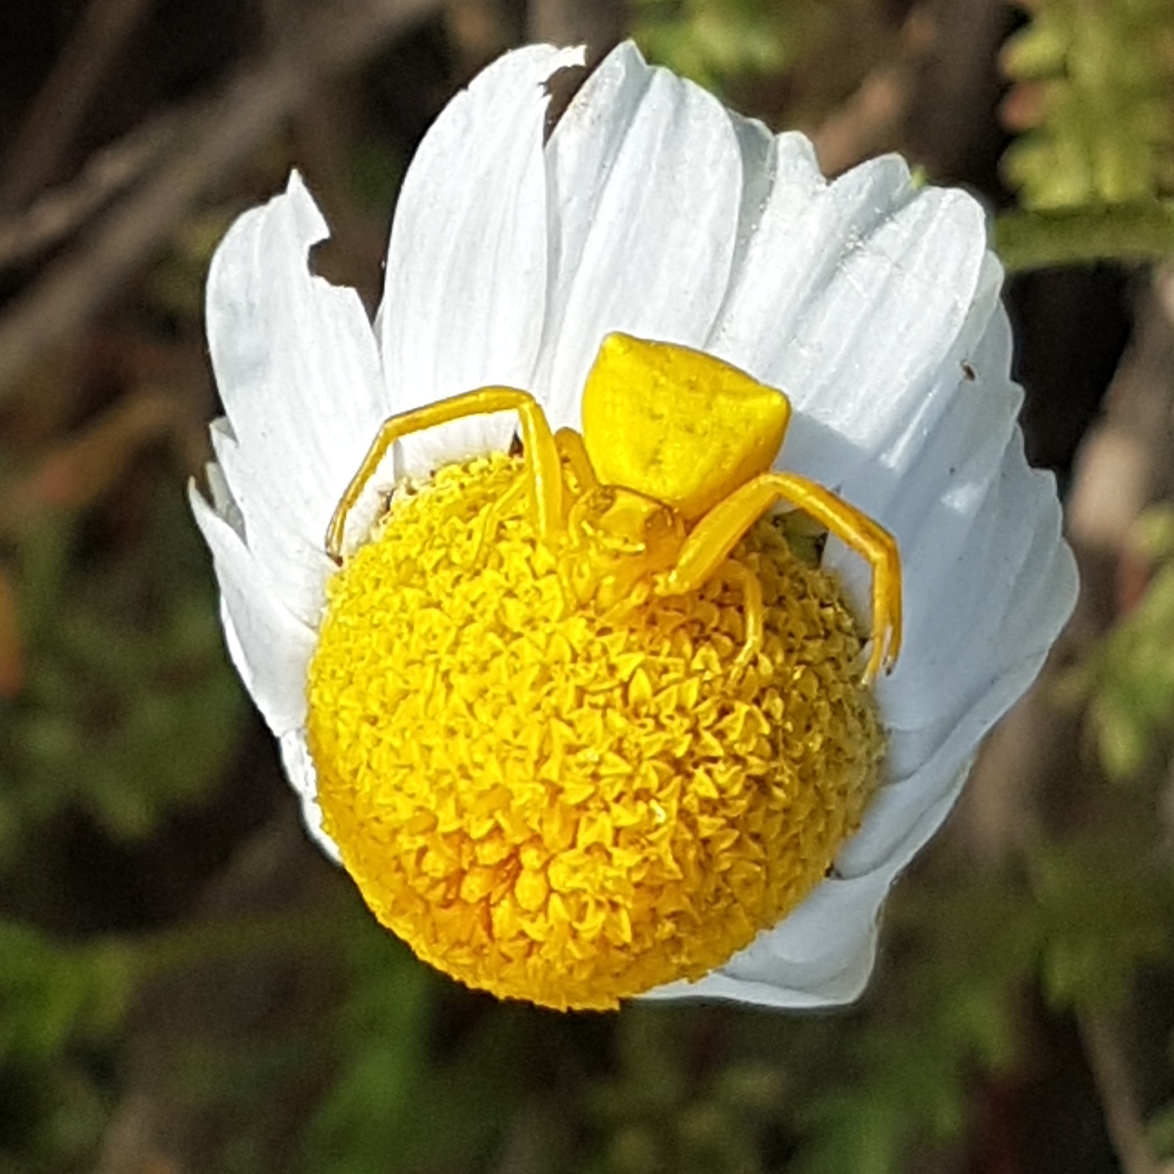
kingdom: Animalia
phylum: Arthropoda
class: Arachnida
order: Araneae
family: Thomisidae
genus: Thomisus
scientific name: Thomisus onustus
